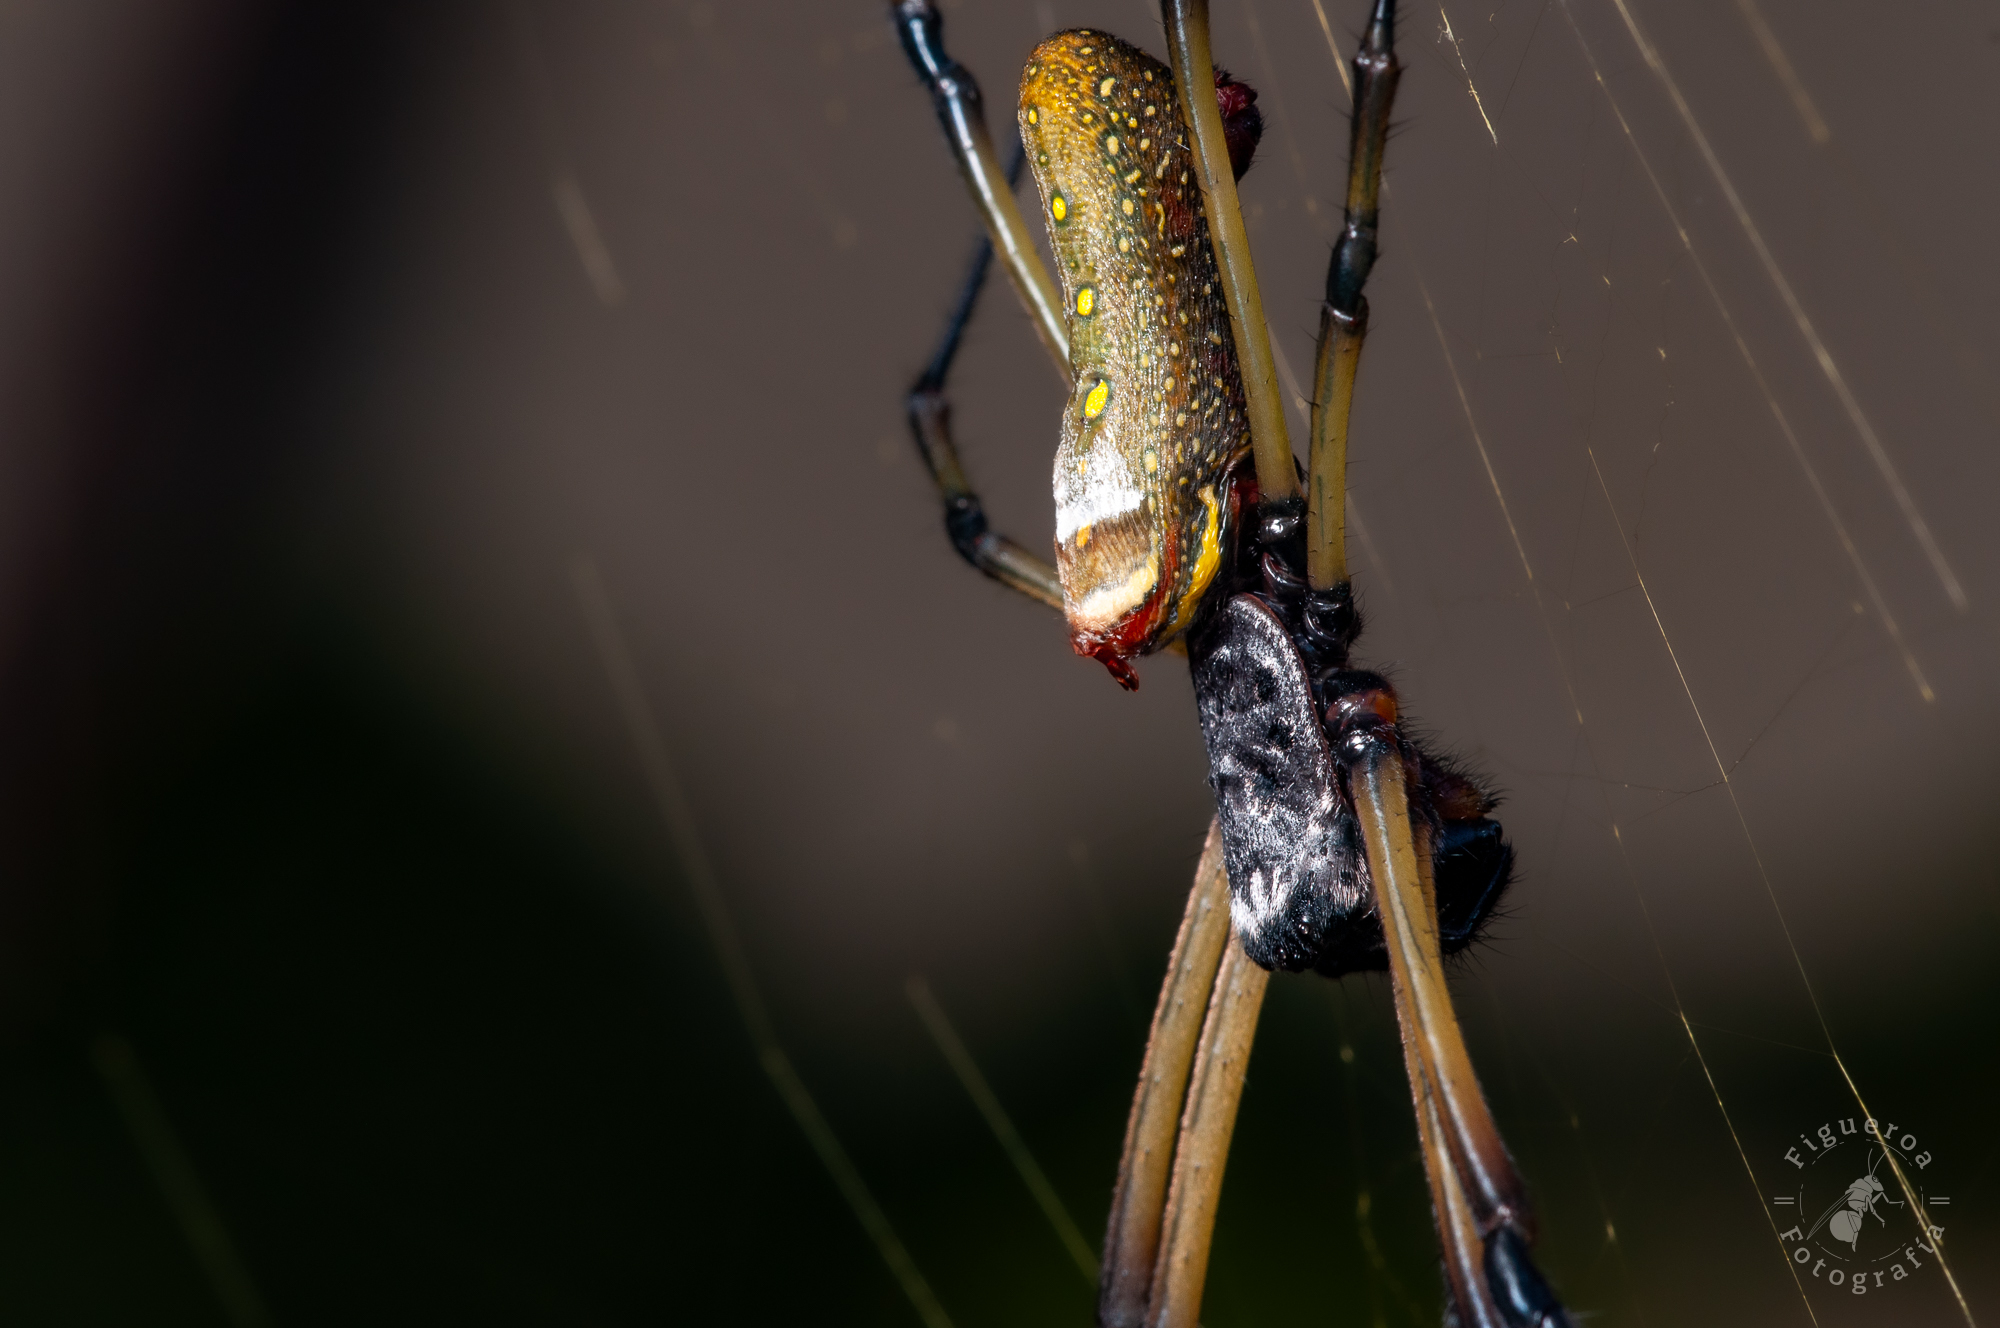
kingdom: Animalia
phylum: Arthropoda
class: Arachnida
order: Araneae
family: Araneidae
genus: Trichonephila
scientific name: Trichonephila clavipes
